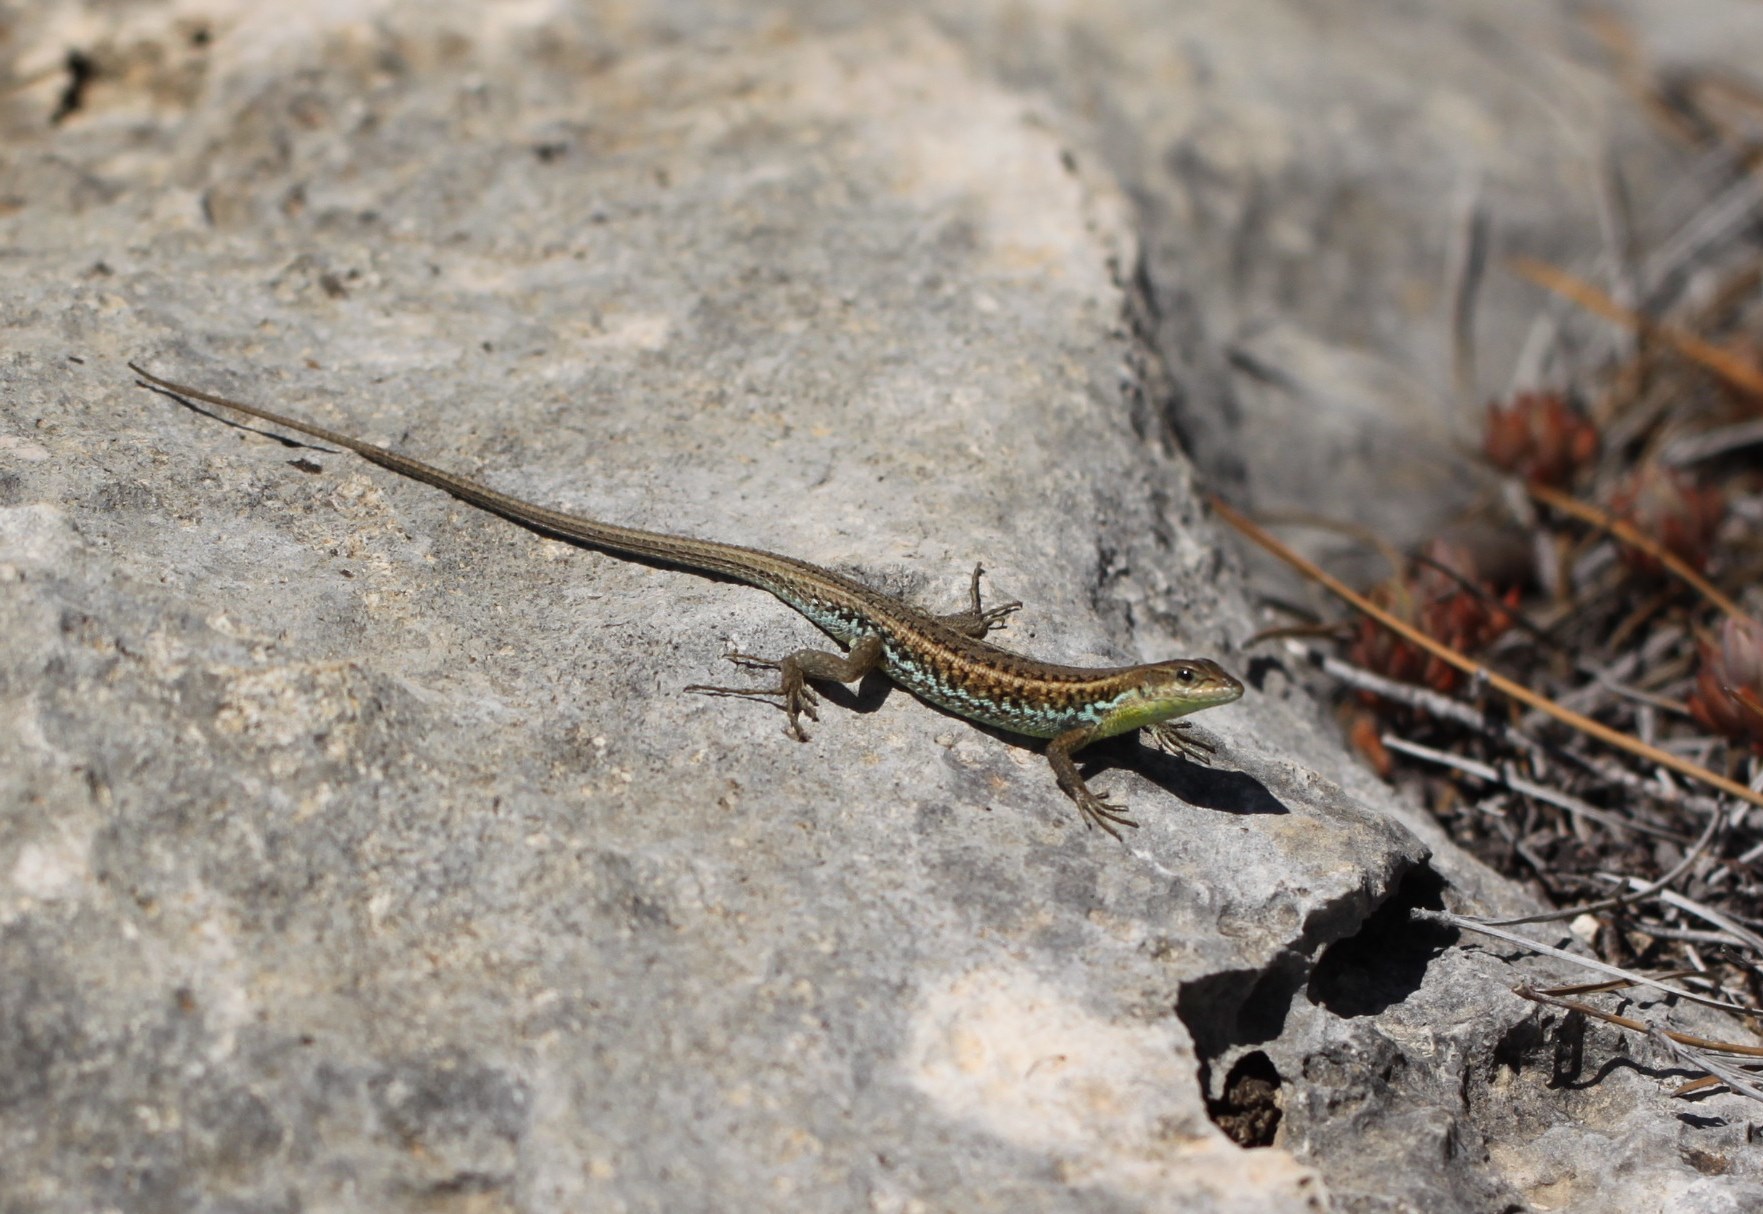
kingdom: Animalia
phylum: Chordata
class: Squamata
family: Lacertidae
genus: Ophisops
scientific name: Ophisops elegans
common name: Snake-eyed lizard
